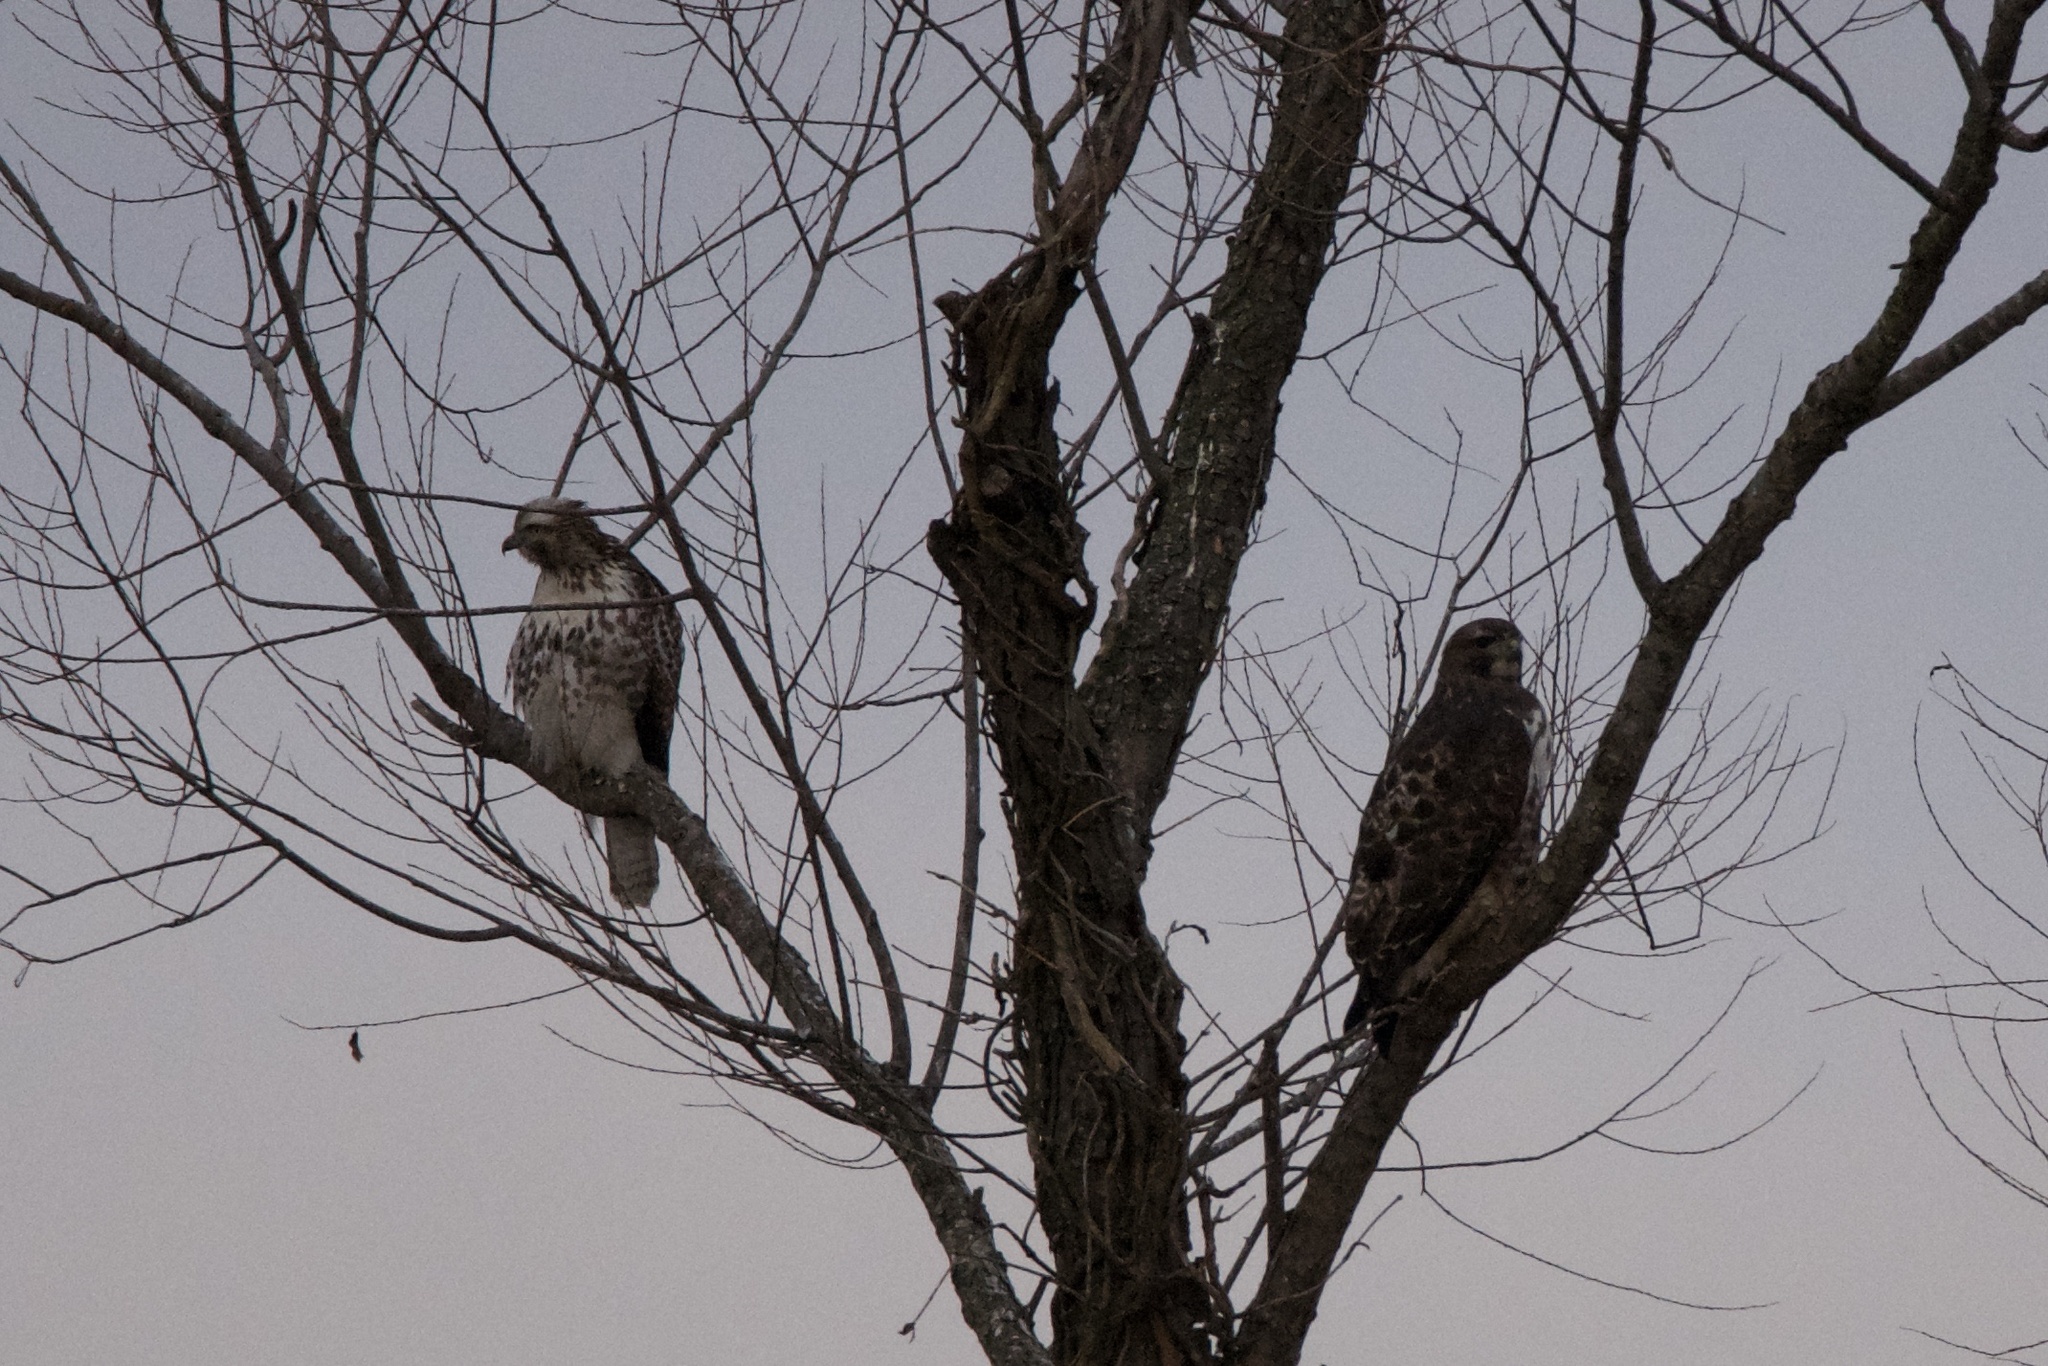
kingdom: Animalia
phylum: Chordata
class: Aves
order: Accipitriformes
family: Accipitridae
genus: Buteo
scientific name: Buteo jamaicensis
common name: Red-tailed hawk
